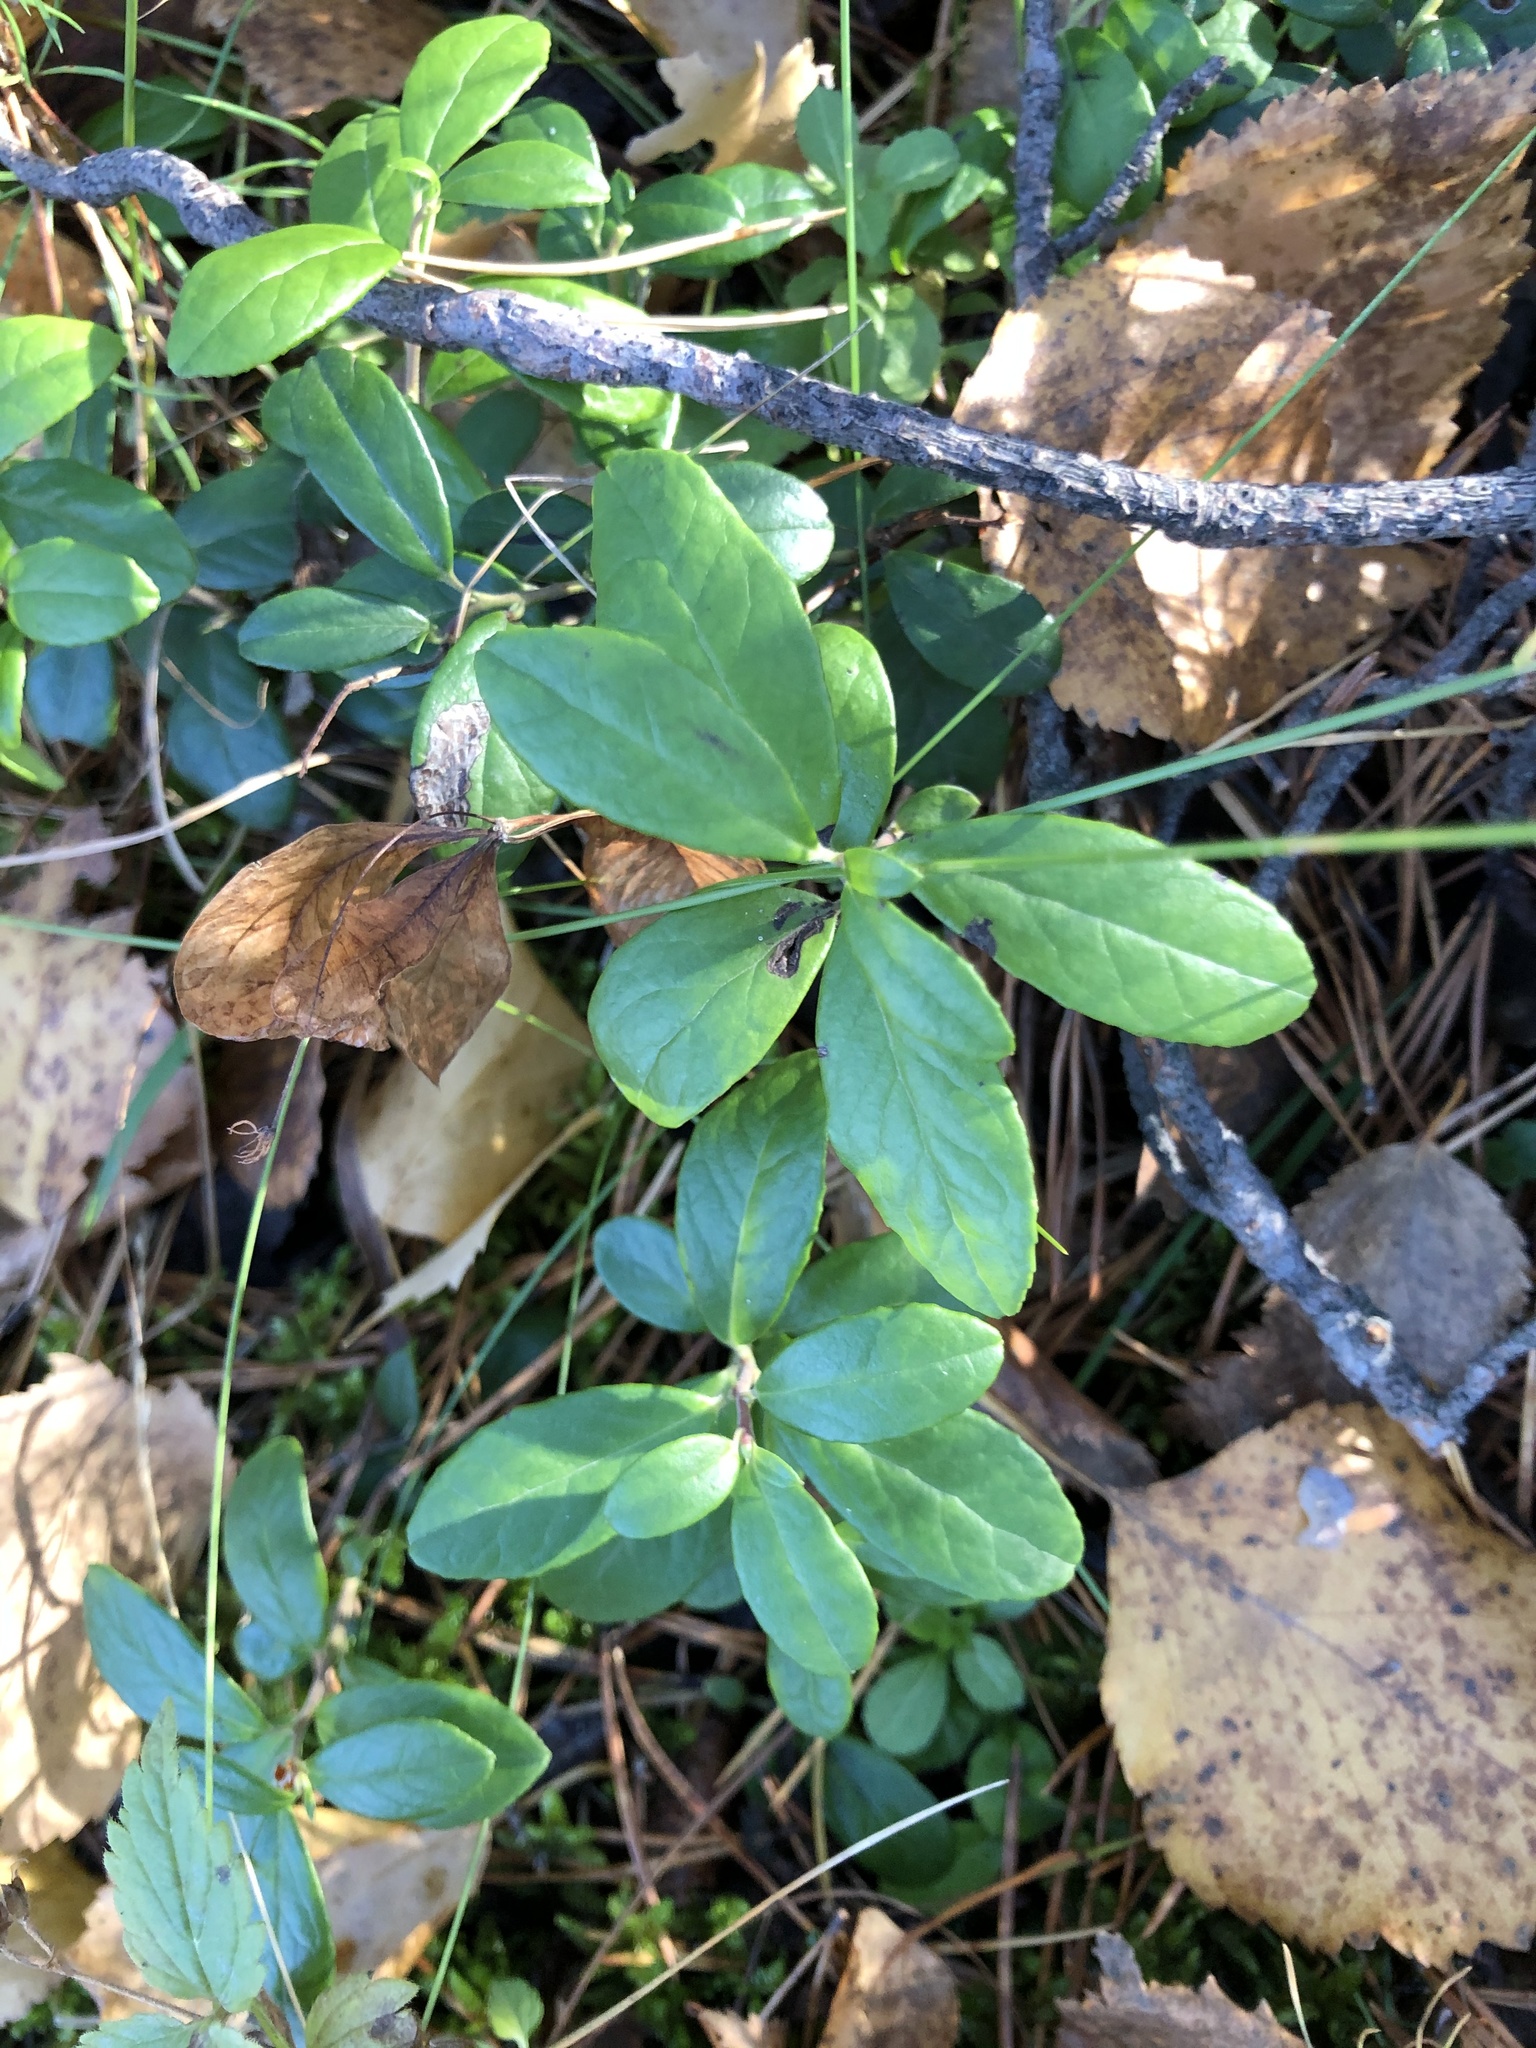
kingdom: Plantae
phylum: Tracheophyta
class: Magnoliopsida
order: Ericales
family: Ericaceae
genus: Vaccinium
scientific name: Vaccinium vitis-idaea
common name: Cowberry
